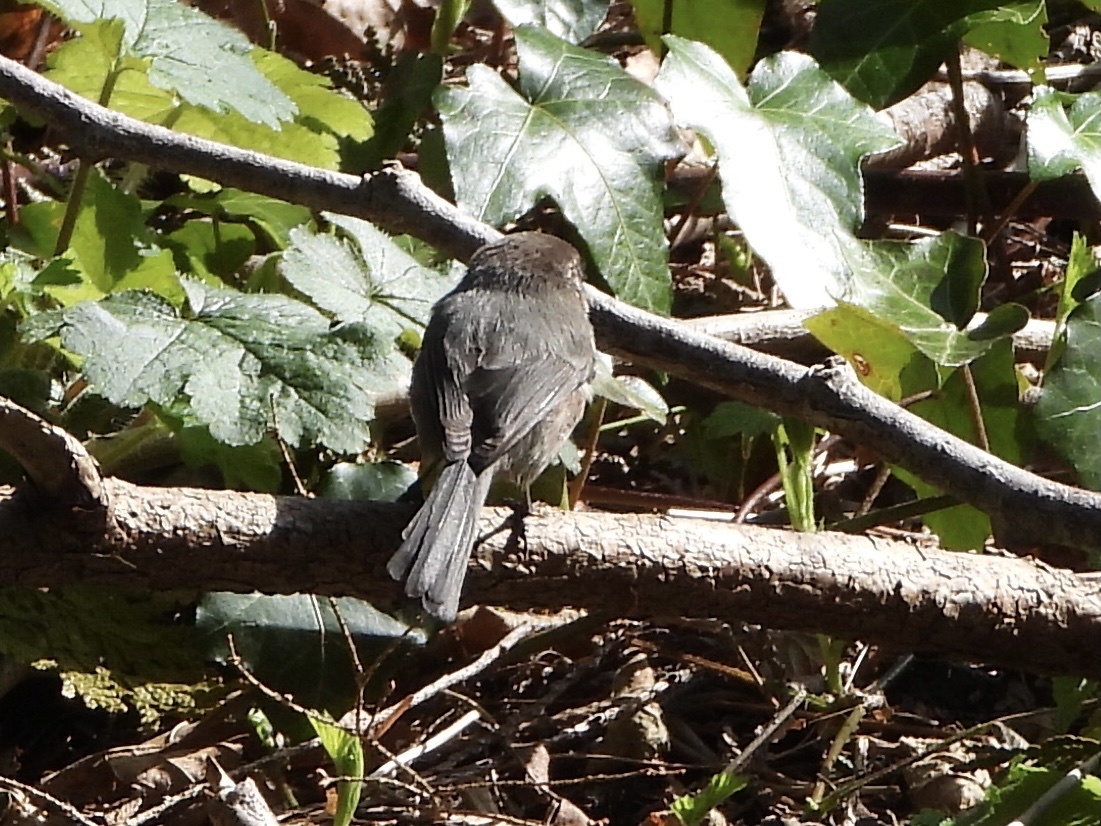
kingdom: Animalia
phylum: Chordata
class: Aves
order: Passeriformes
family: Aegithalidae
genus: Psaltriparus
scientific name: Psaltriparus minimus
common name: American bushtit
